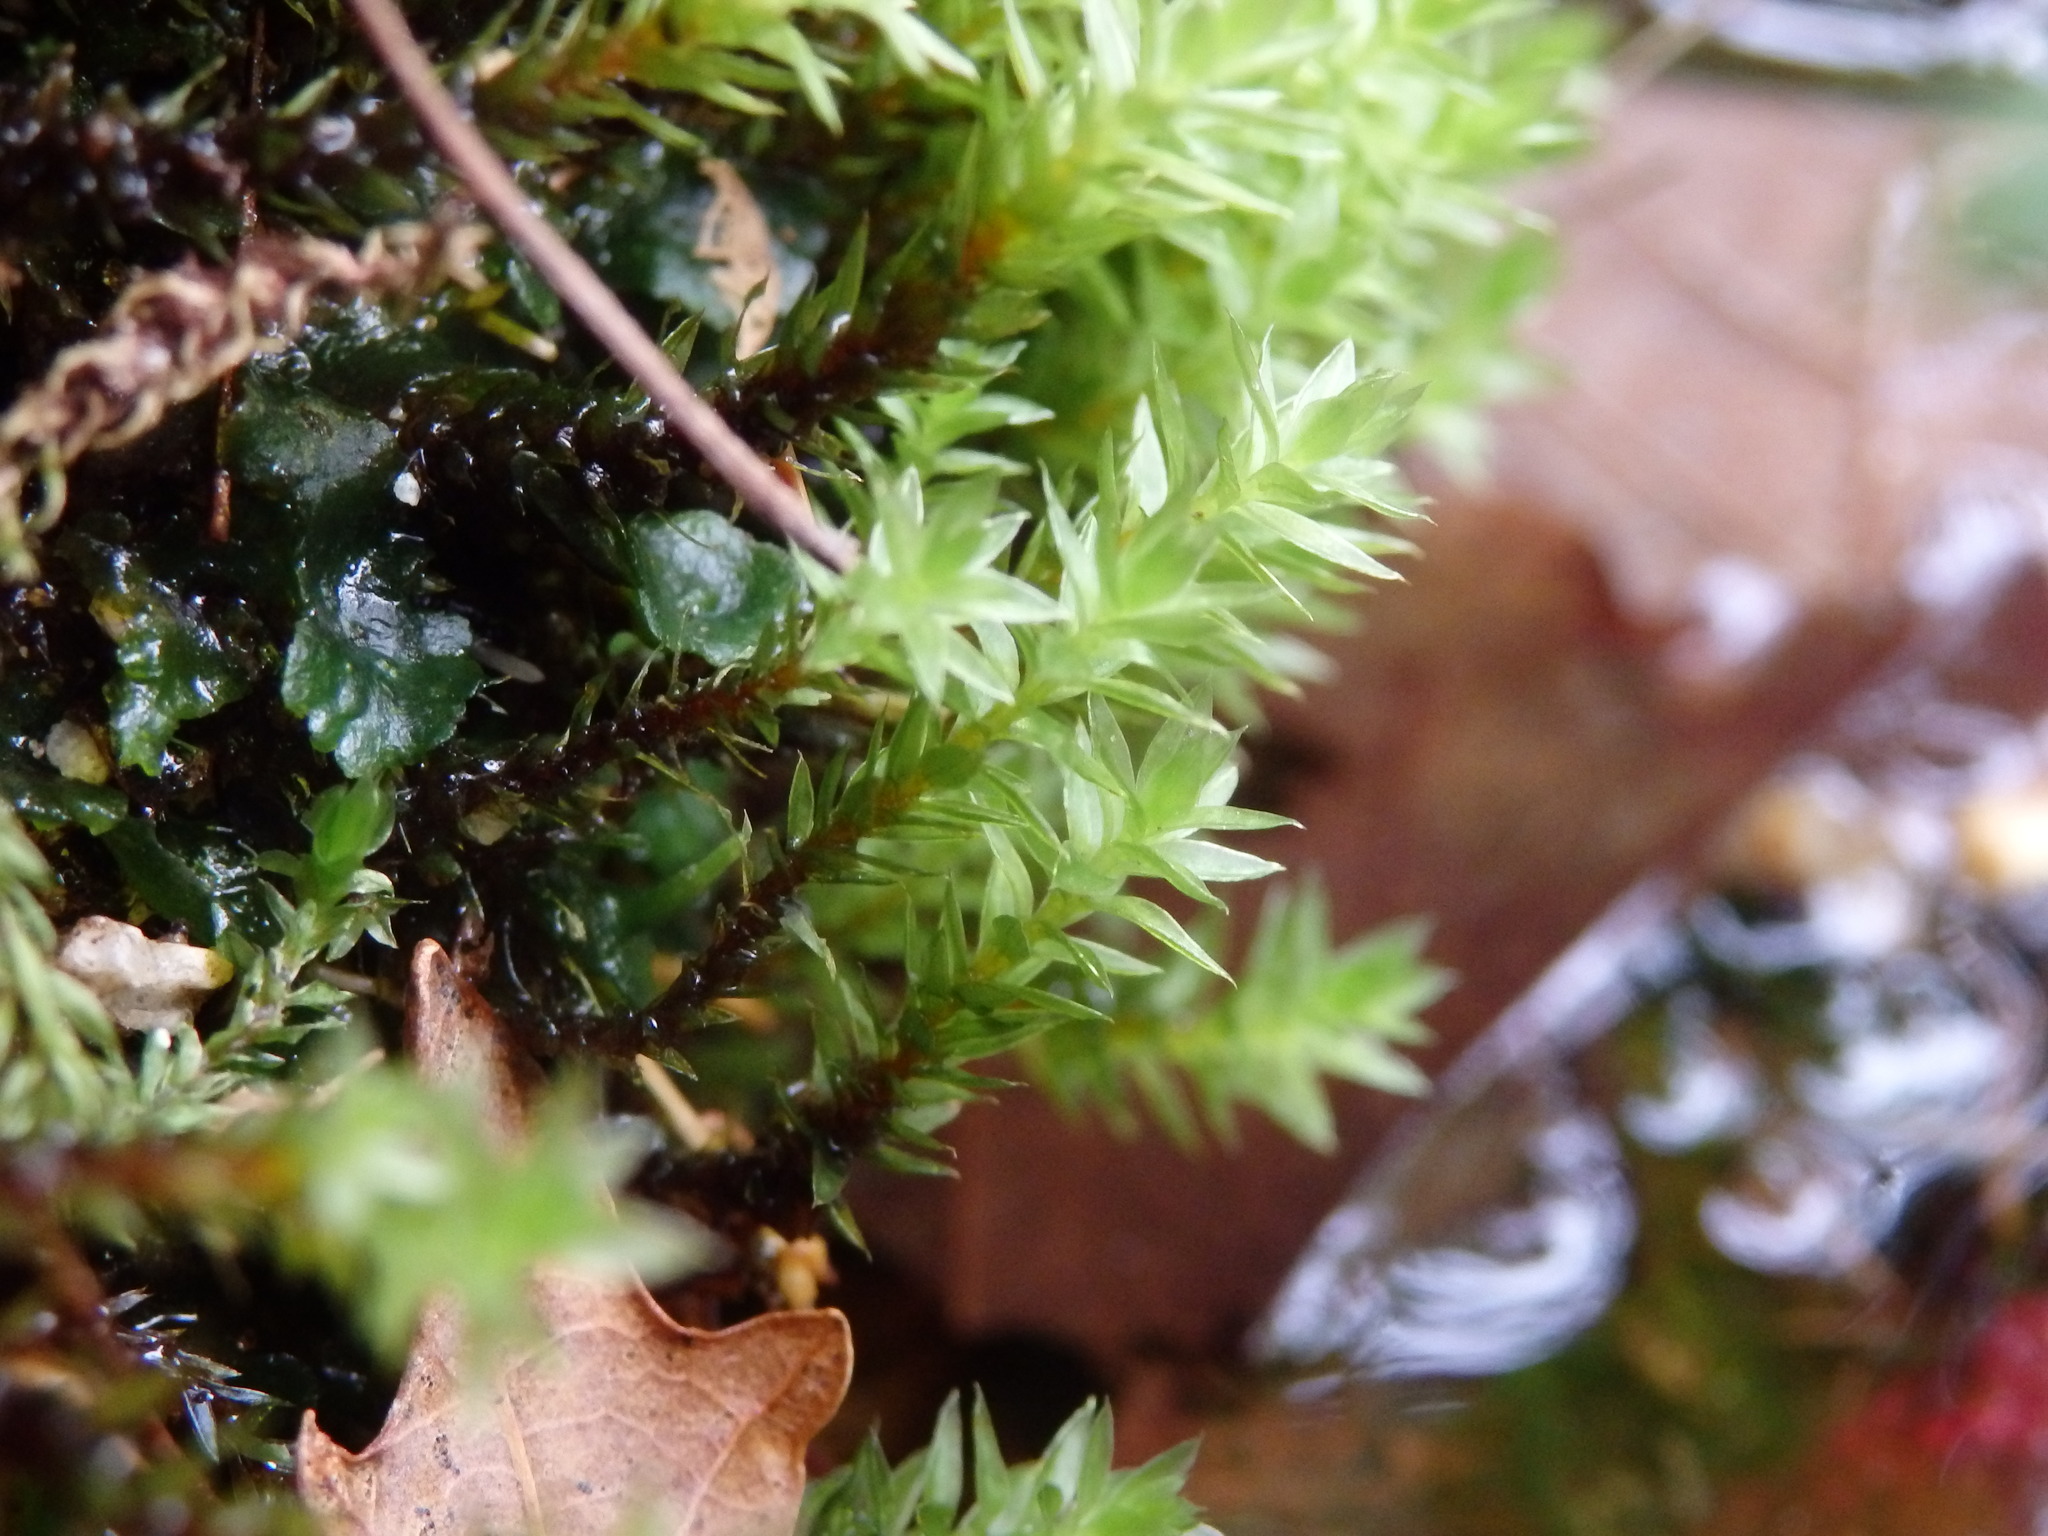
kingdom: Plantae
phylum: Bryophyta
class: Bryopsida
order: Bryales
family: Bryaceae
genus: Ptychostomum
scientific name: Ptychostomum pseudotriquetrum
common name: Long-leaved thread moss
